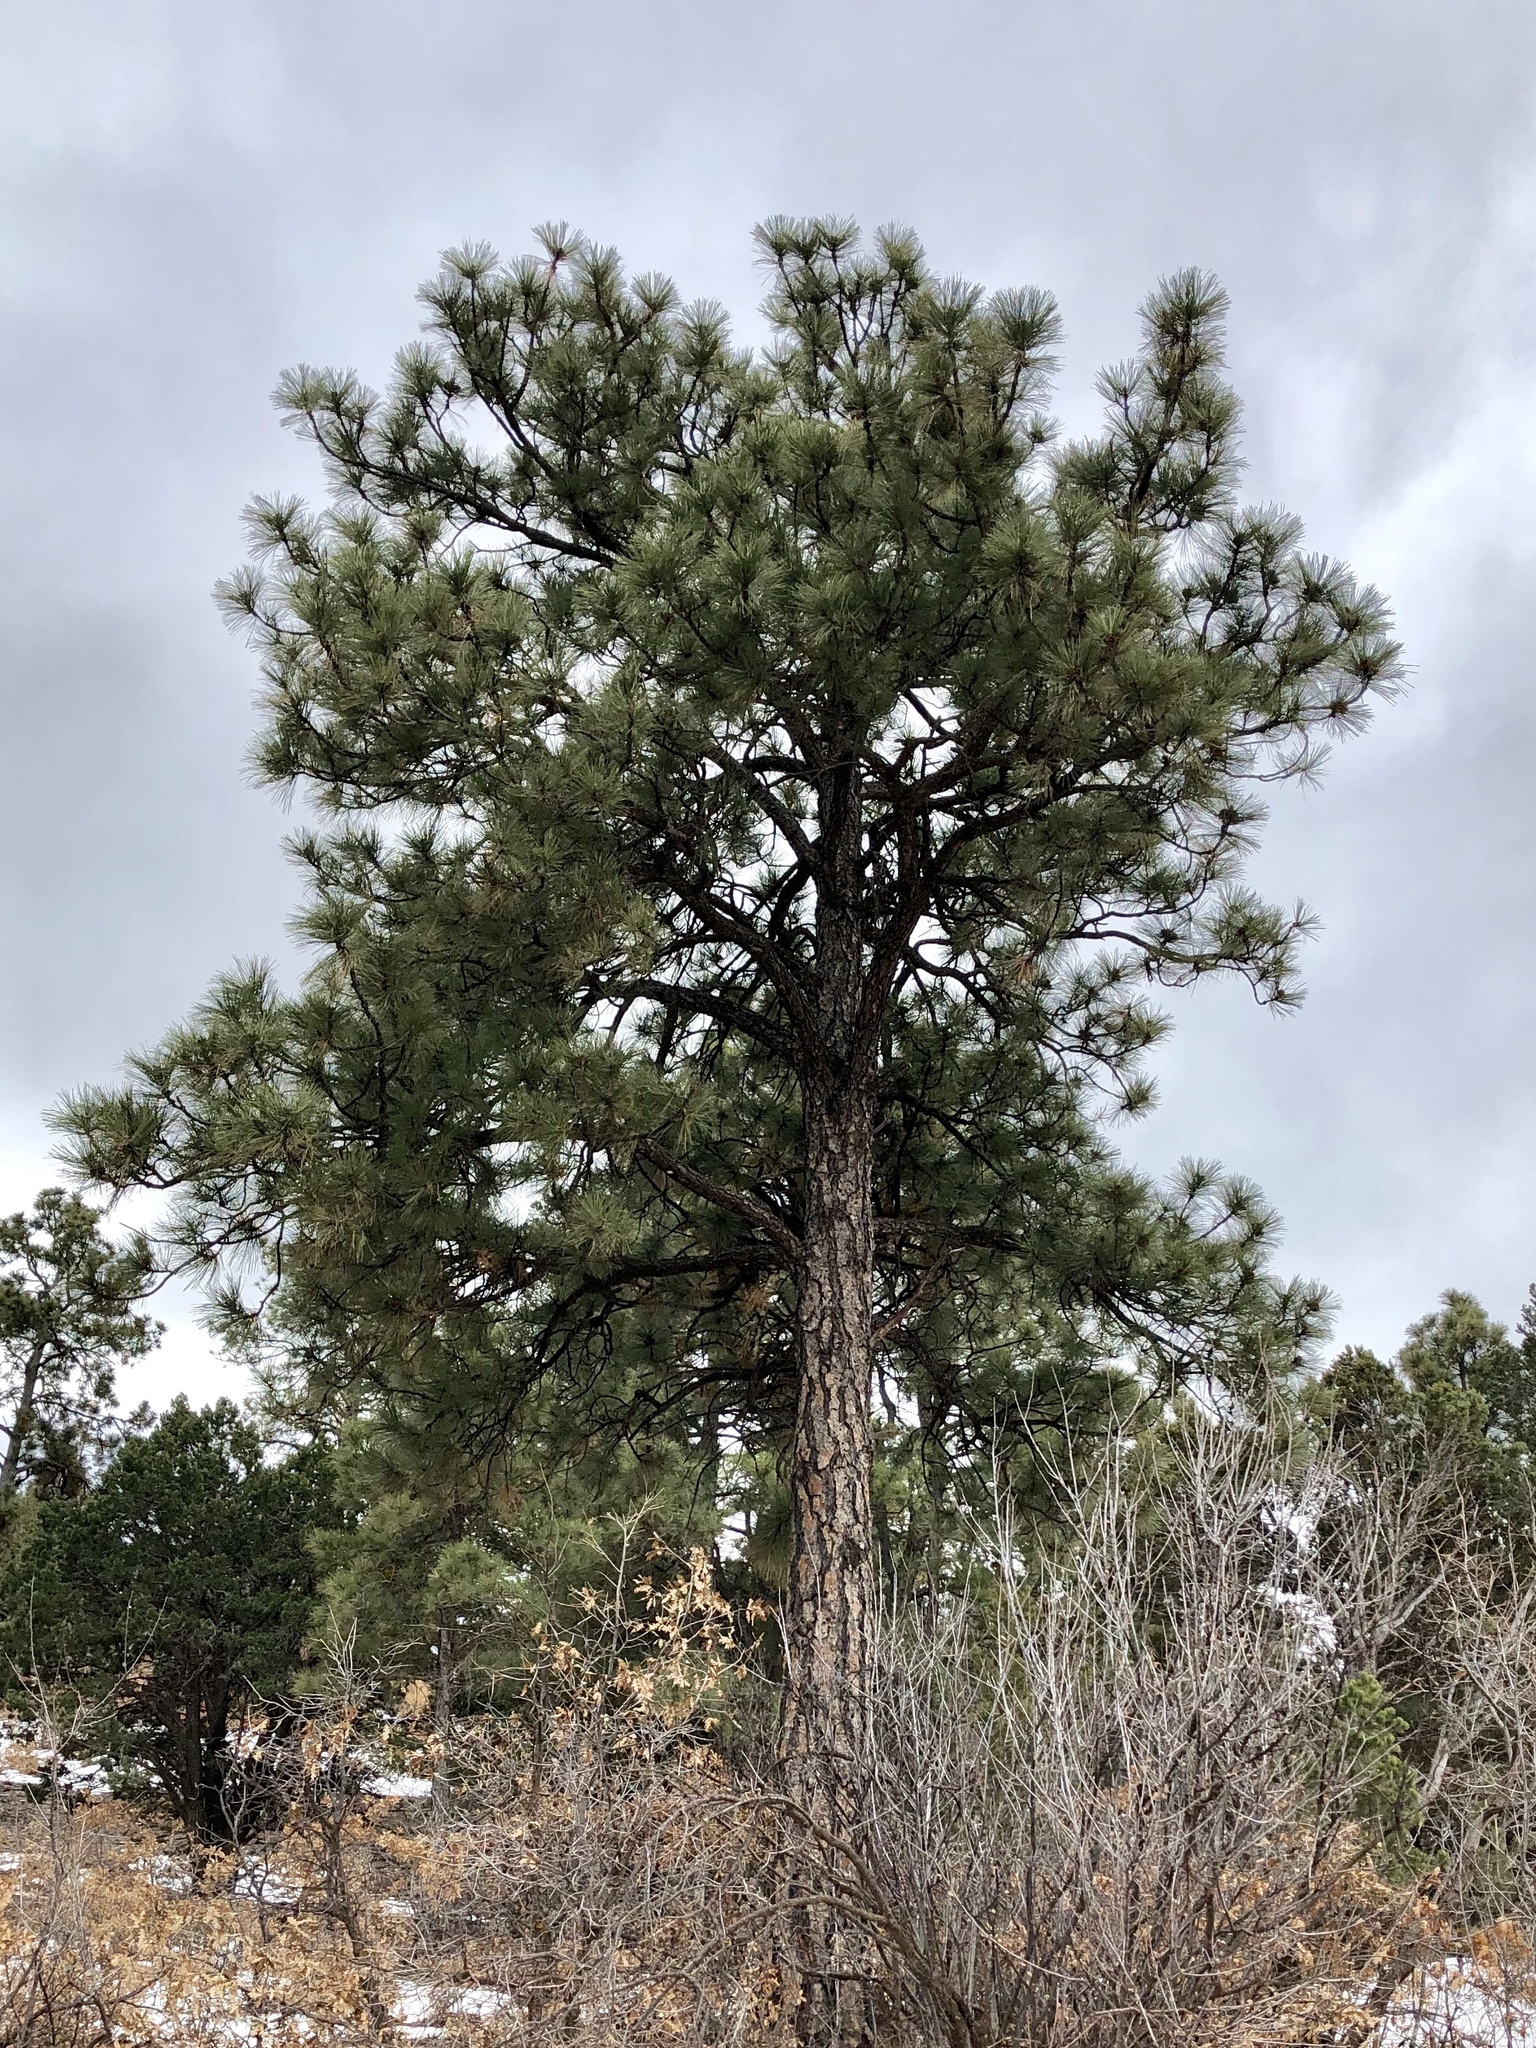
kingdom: Plantae
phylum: Tracheophyta
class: Pinopsida
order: Pinales
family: Pinaceae
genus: Pinus
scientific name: Pinus ponderosa
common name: Western yellow-pine
